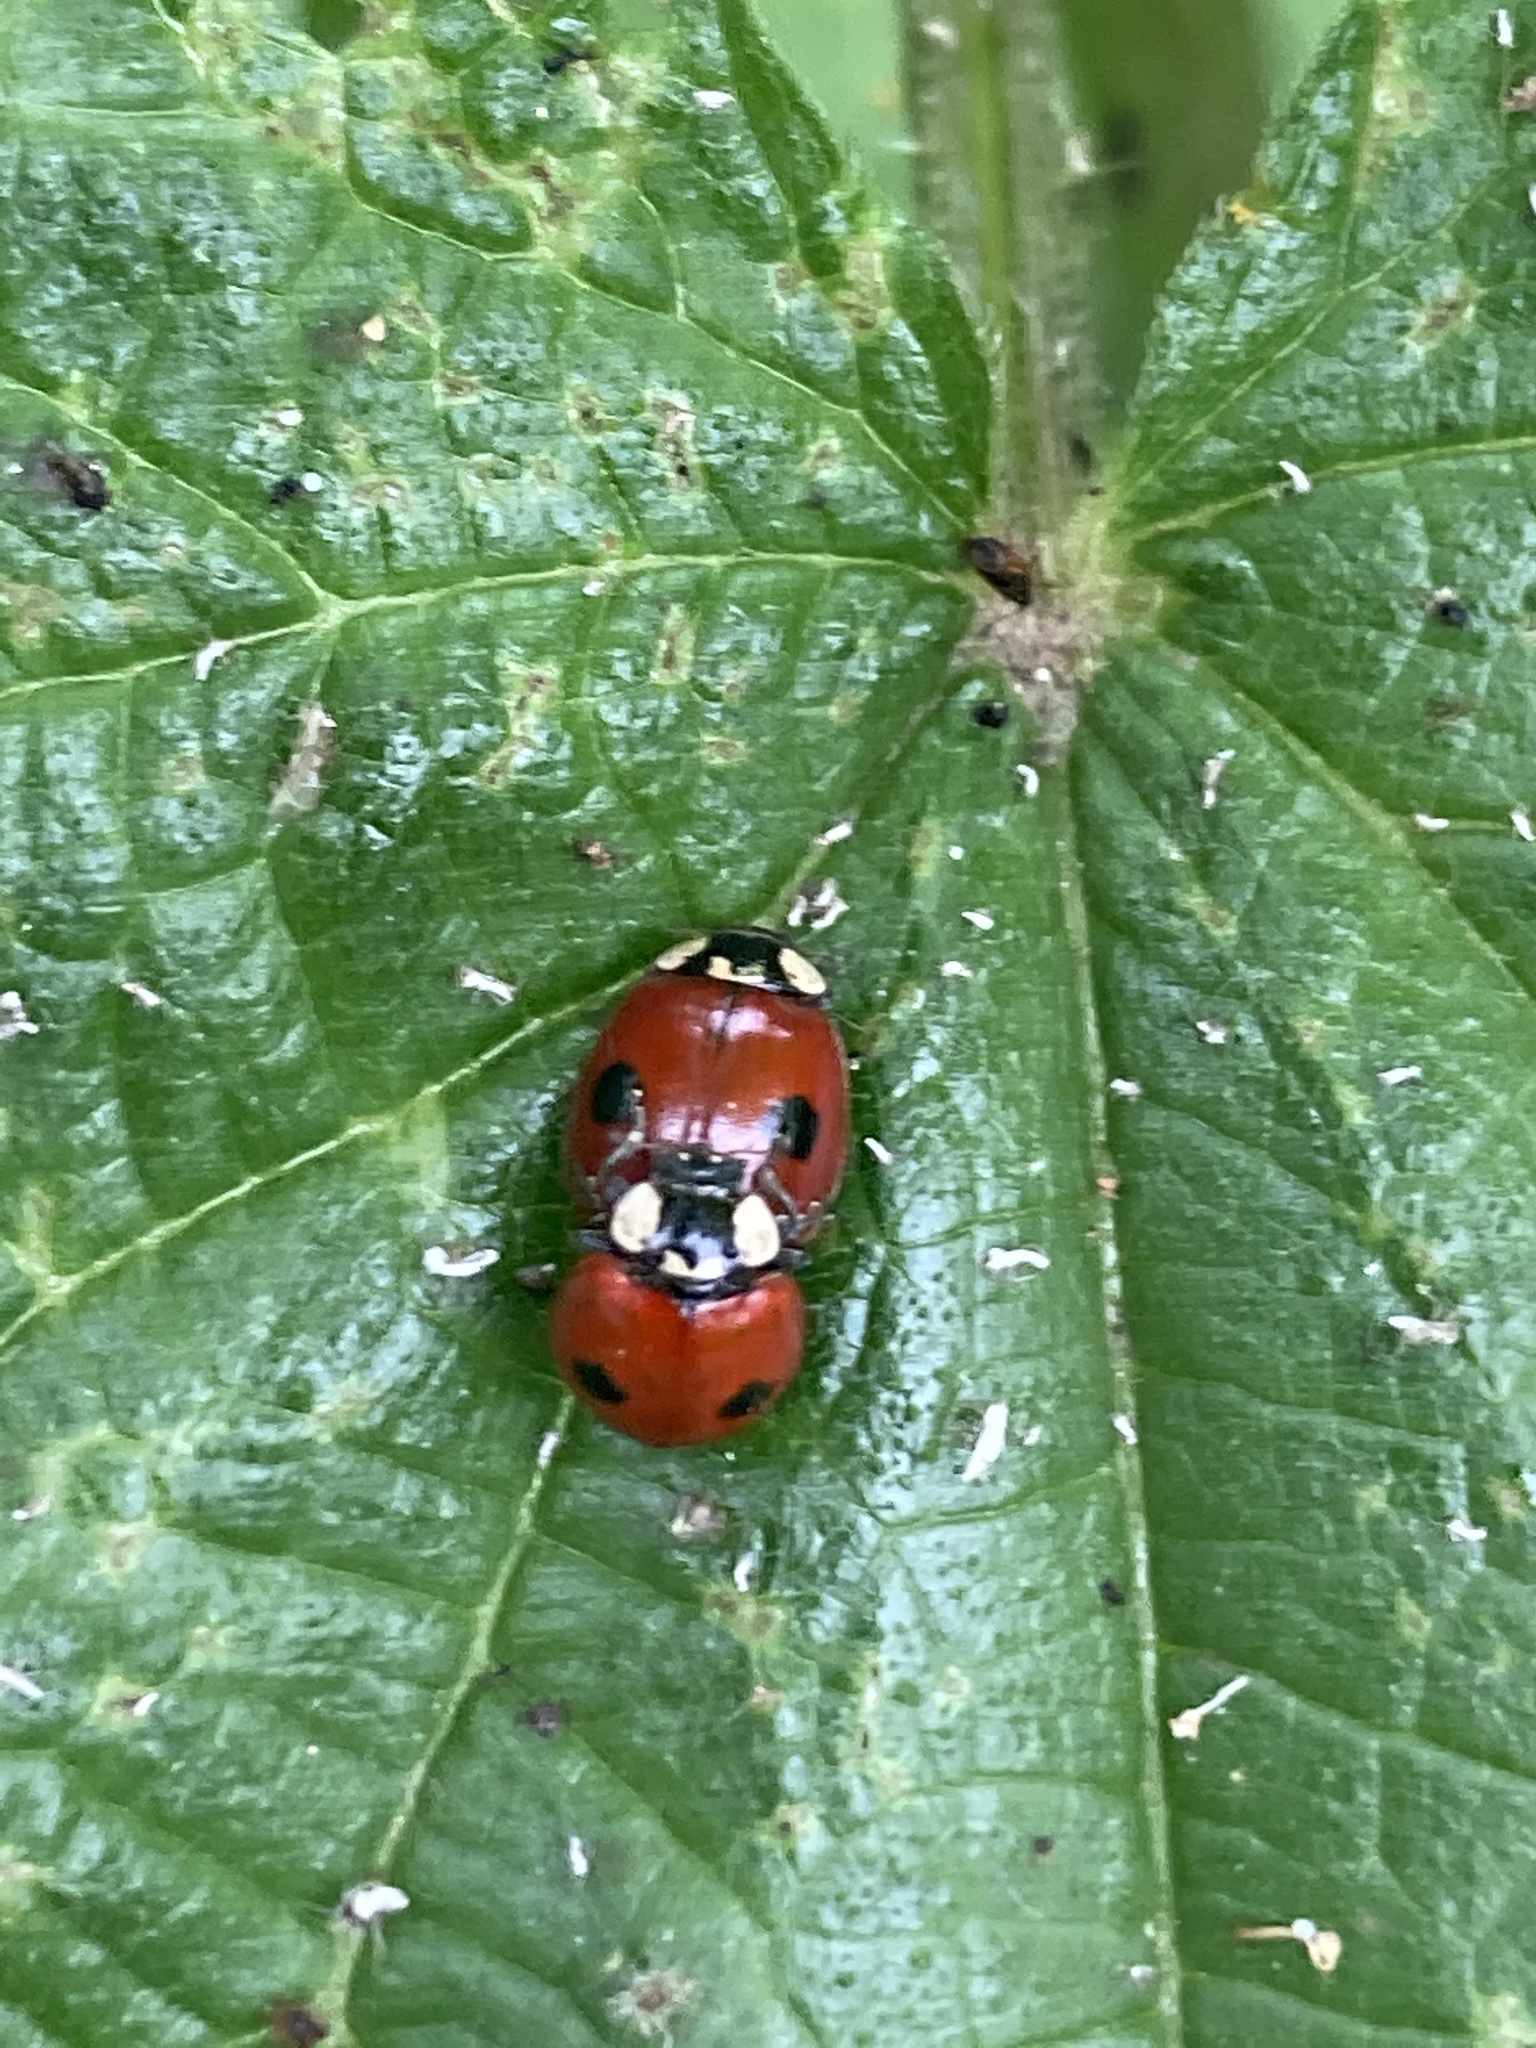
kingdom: Animalia
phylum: Arthropoda
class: Insecta
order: Coleoptera
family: Coccinellidae
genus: Adalia
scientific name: Adalia bipunctata
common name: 2-spot ladybird
